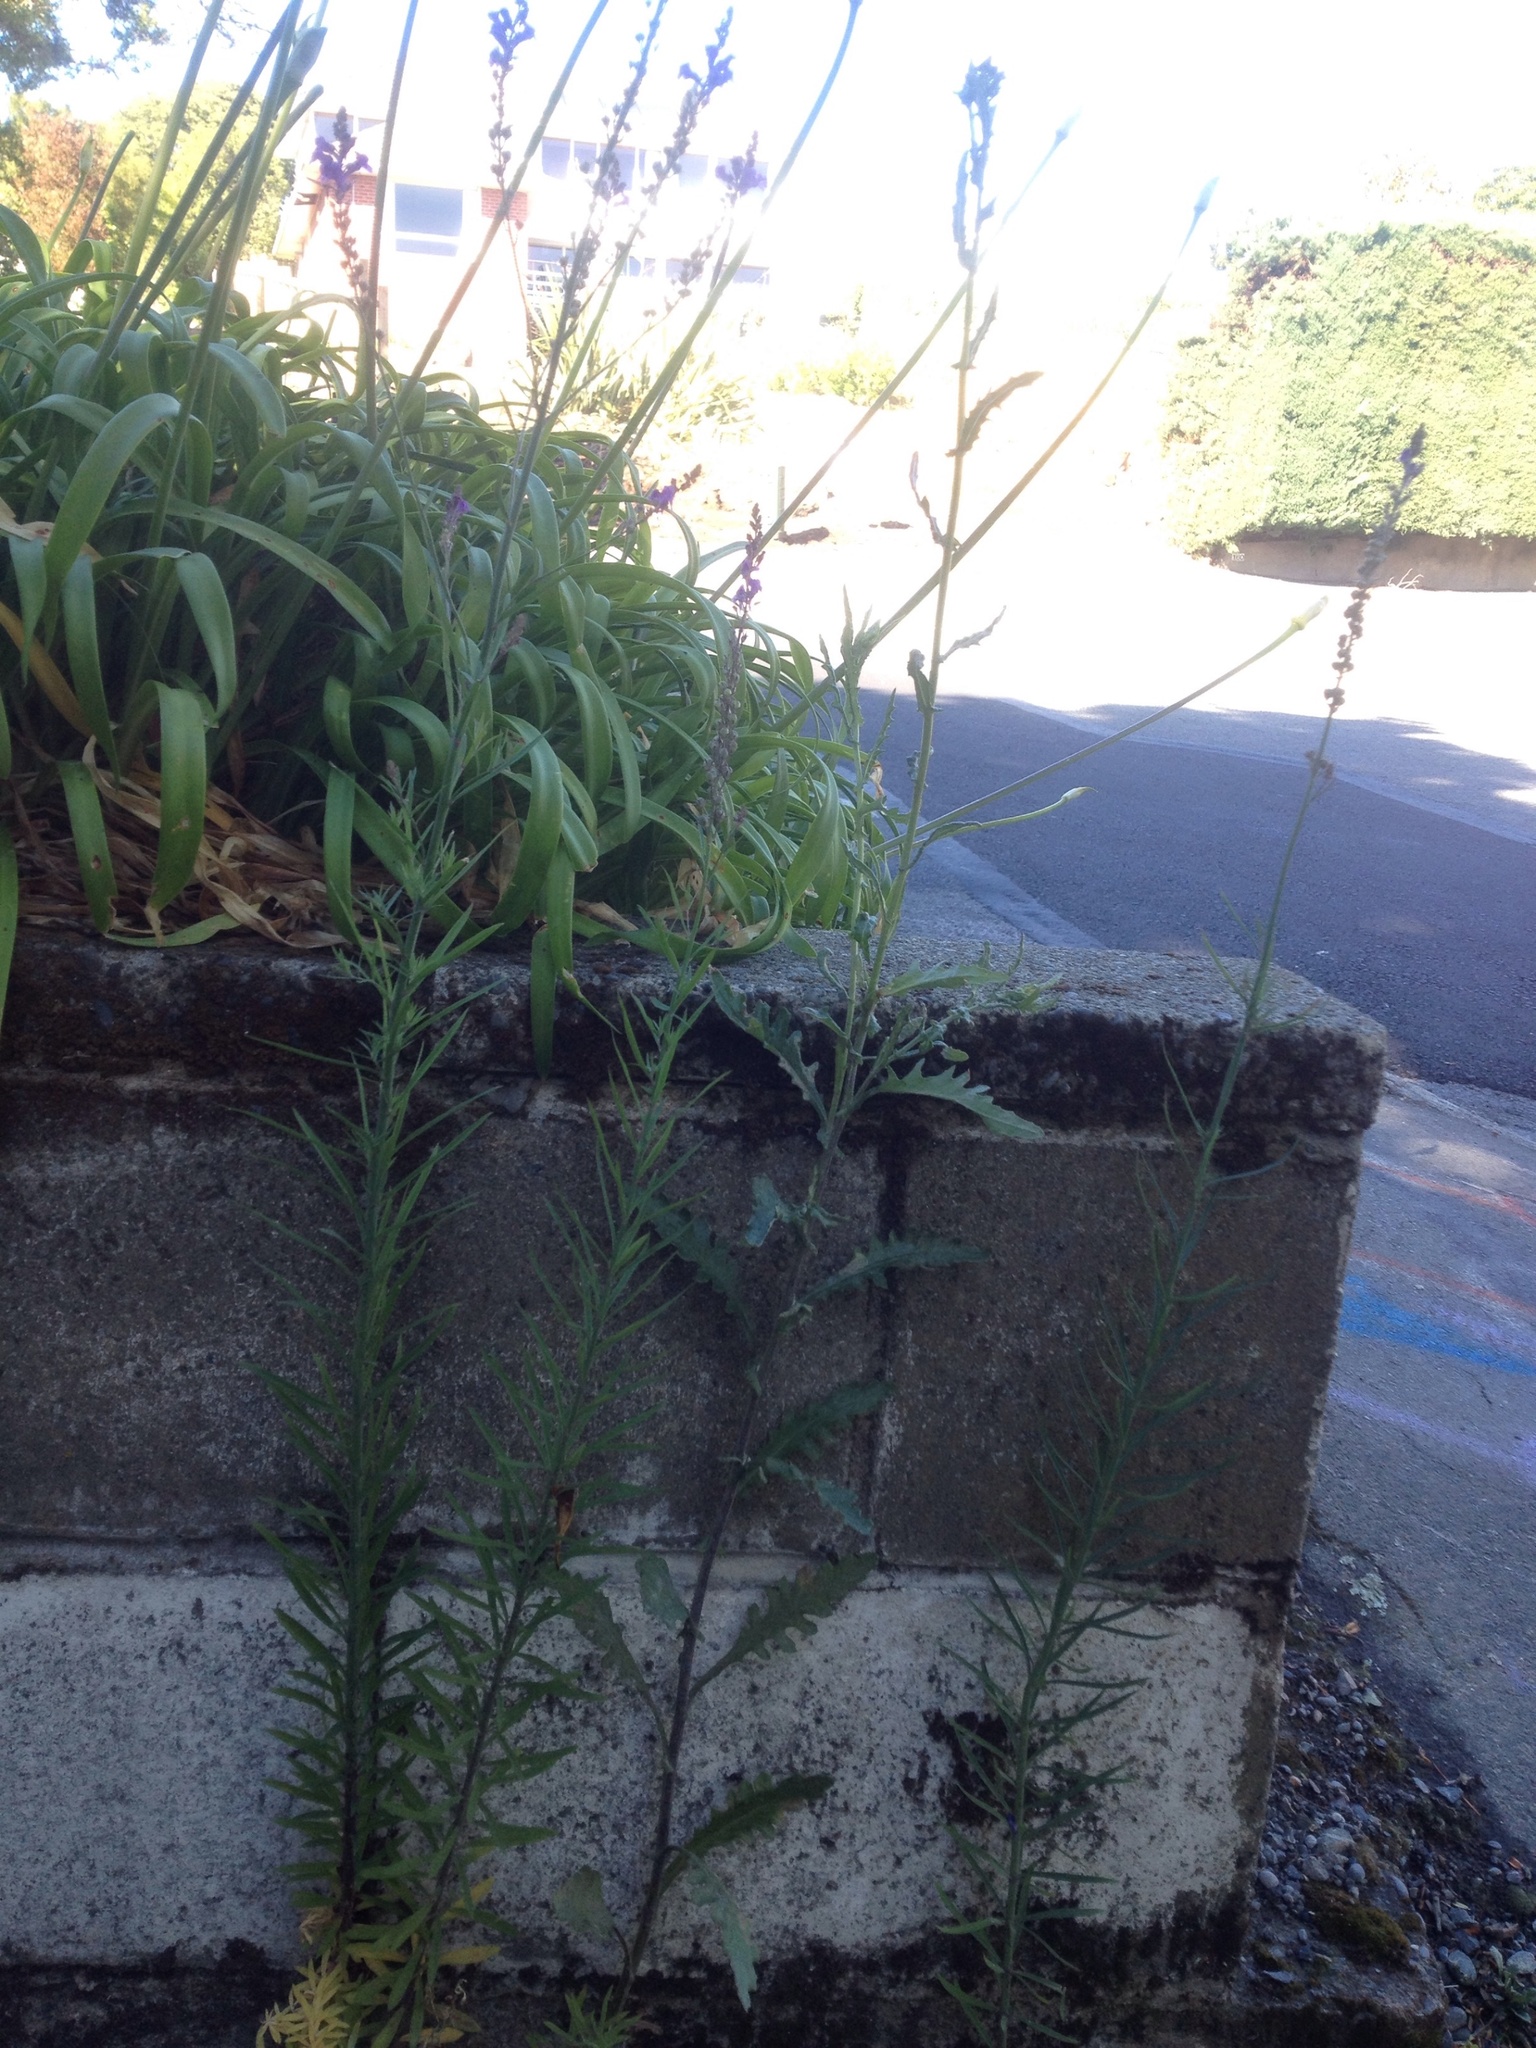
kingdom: Plantae
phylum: Tracheophyta
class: Magnoliopsida
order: Asterales
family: Asteraceae
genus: Senecio
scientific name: Senecio glomeratus
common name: Cutleaf burnweed
